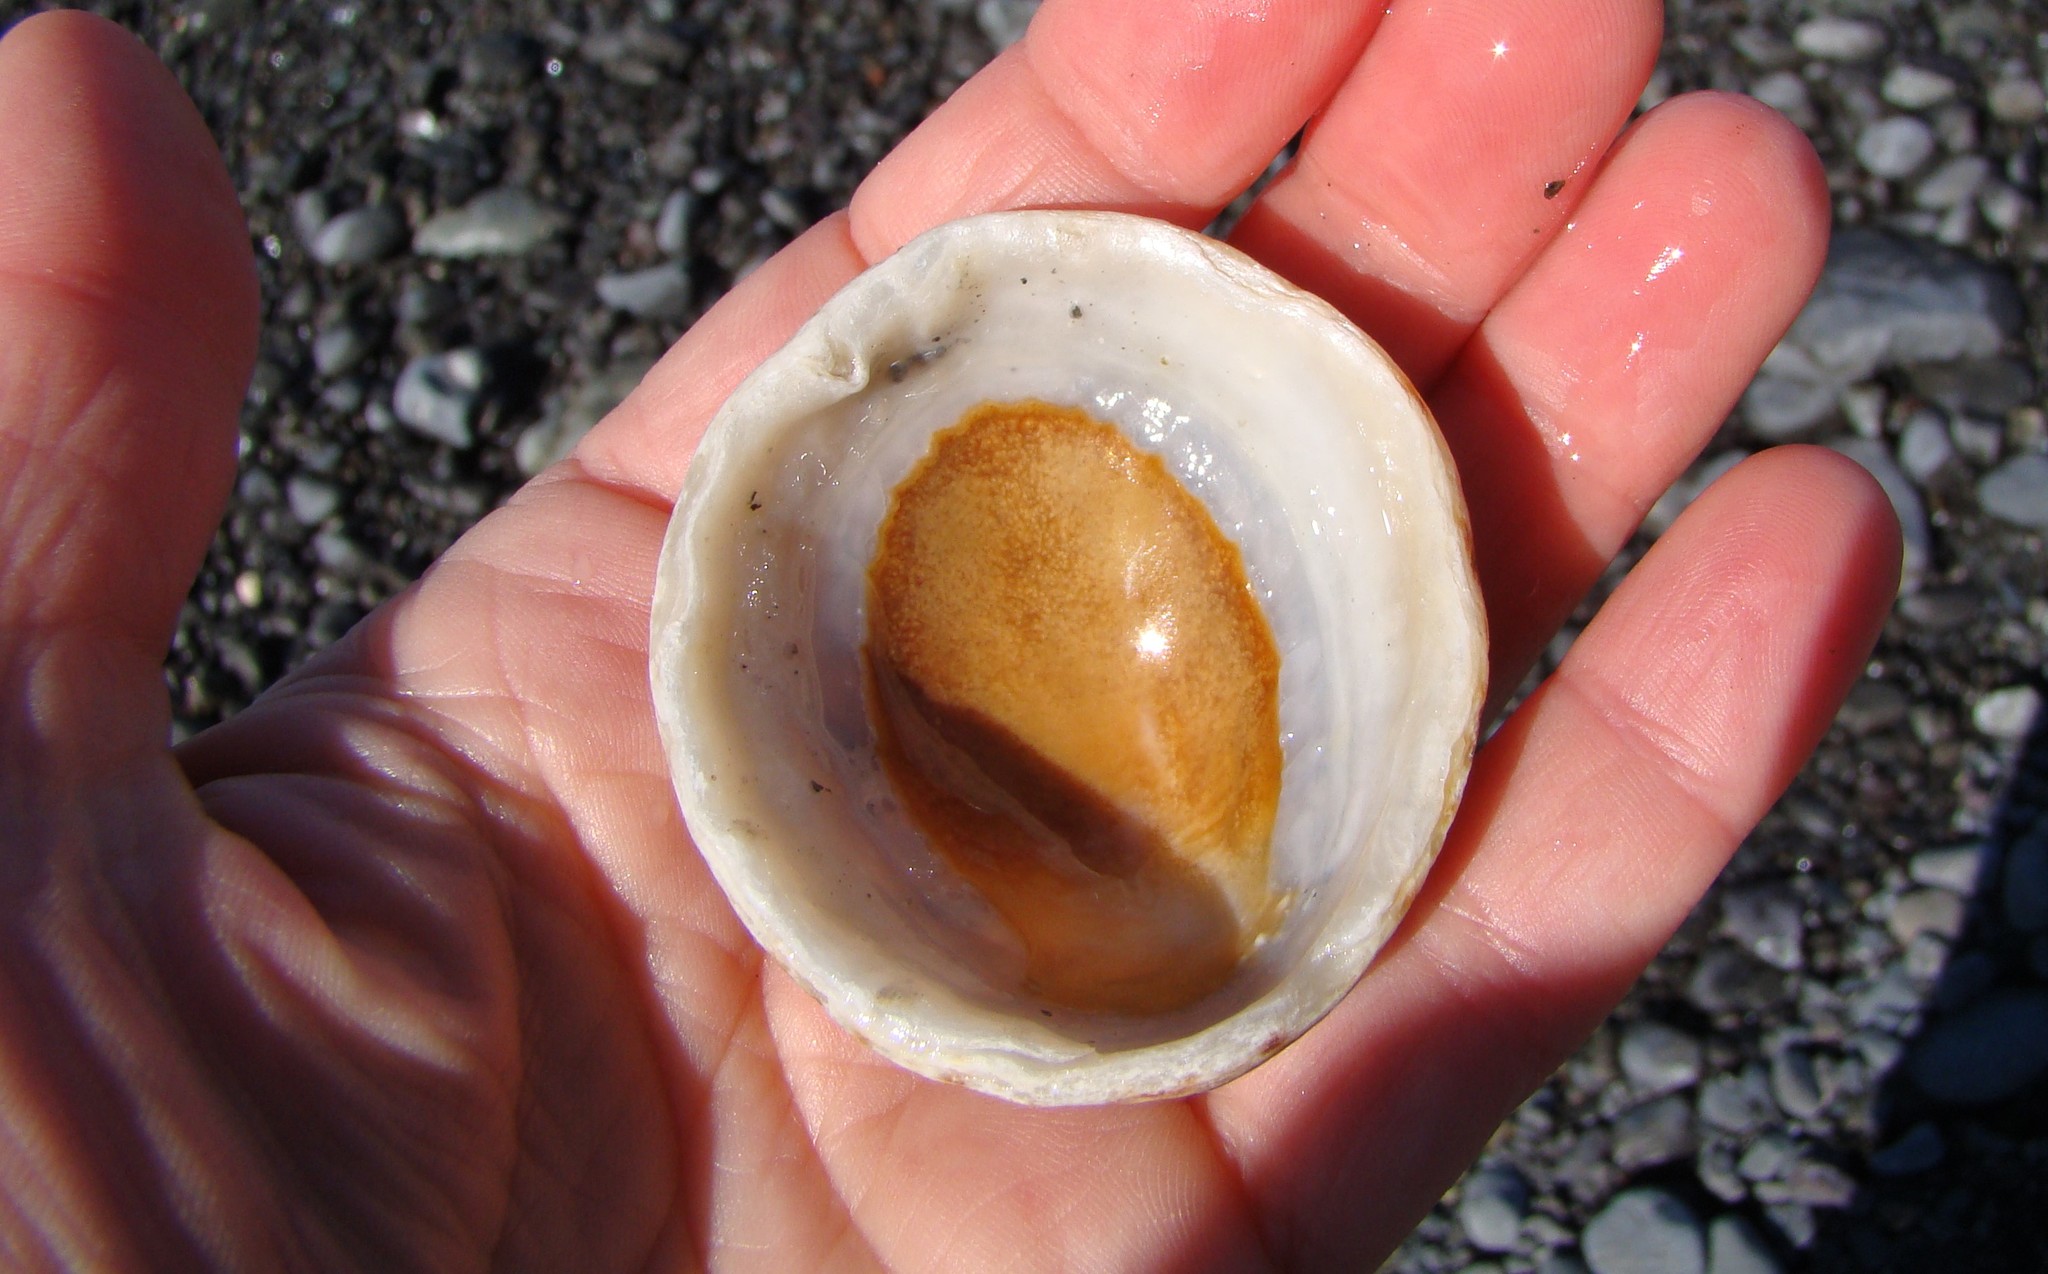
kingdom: Animalia
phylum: Mollusca
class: Gastropoda
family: Nacellidae
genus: Cellana
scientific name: Cellana denticulata
